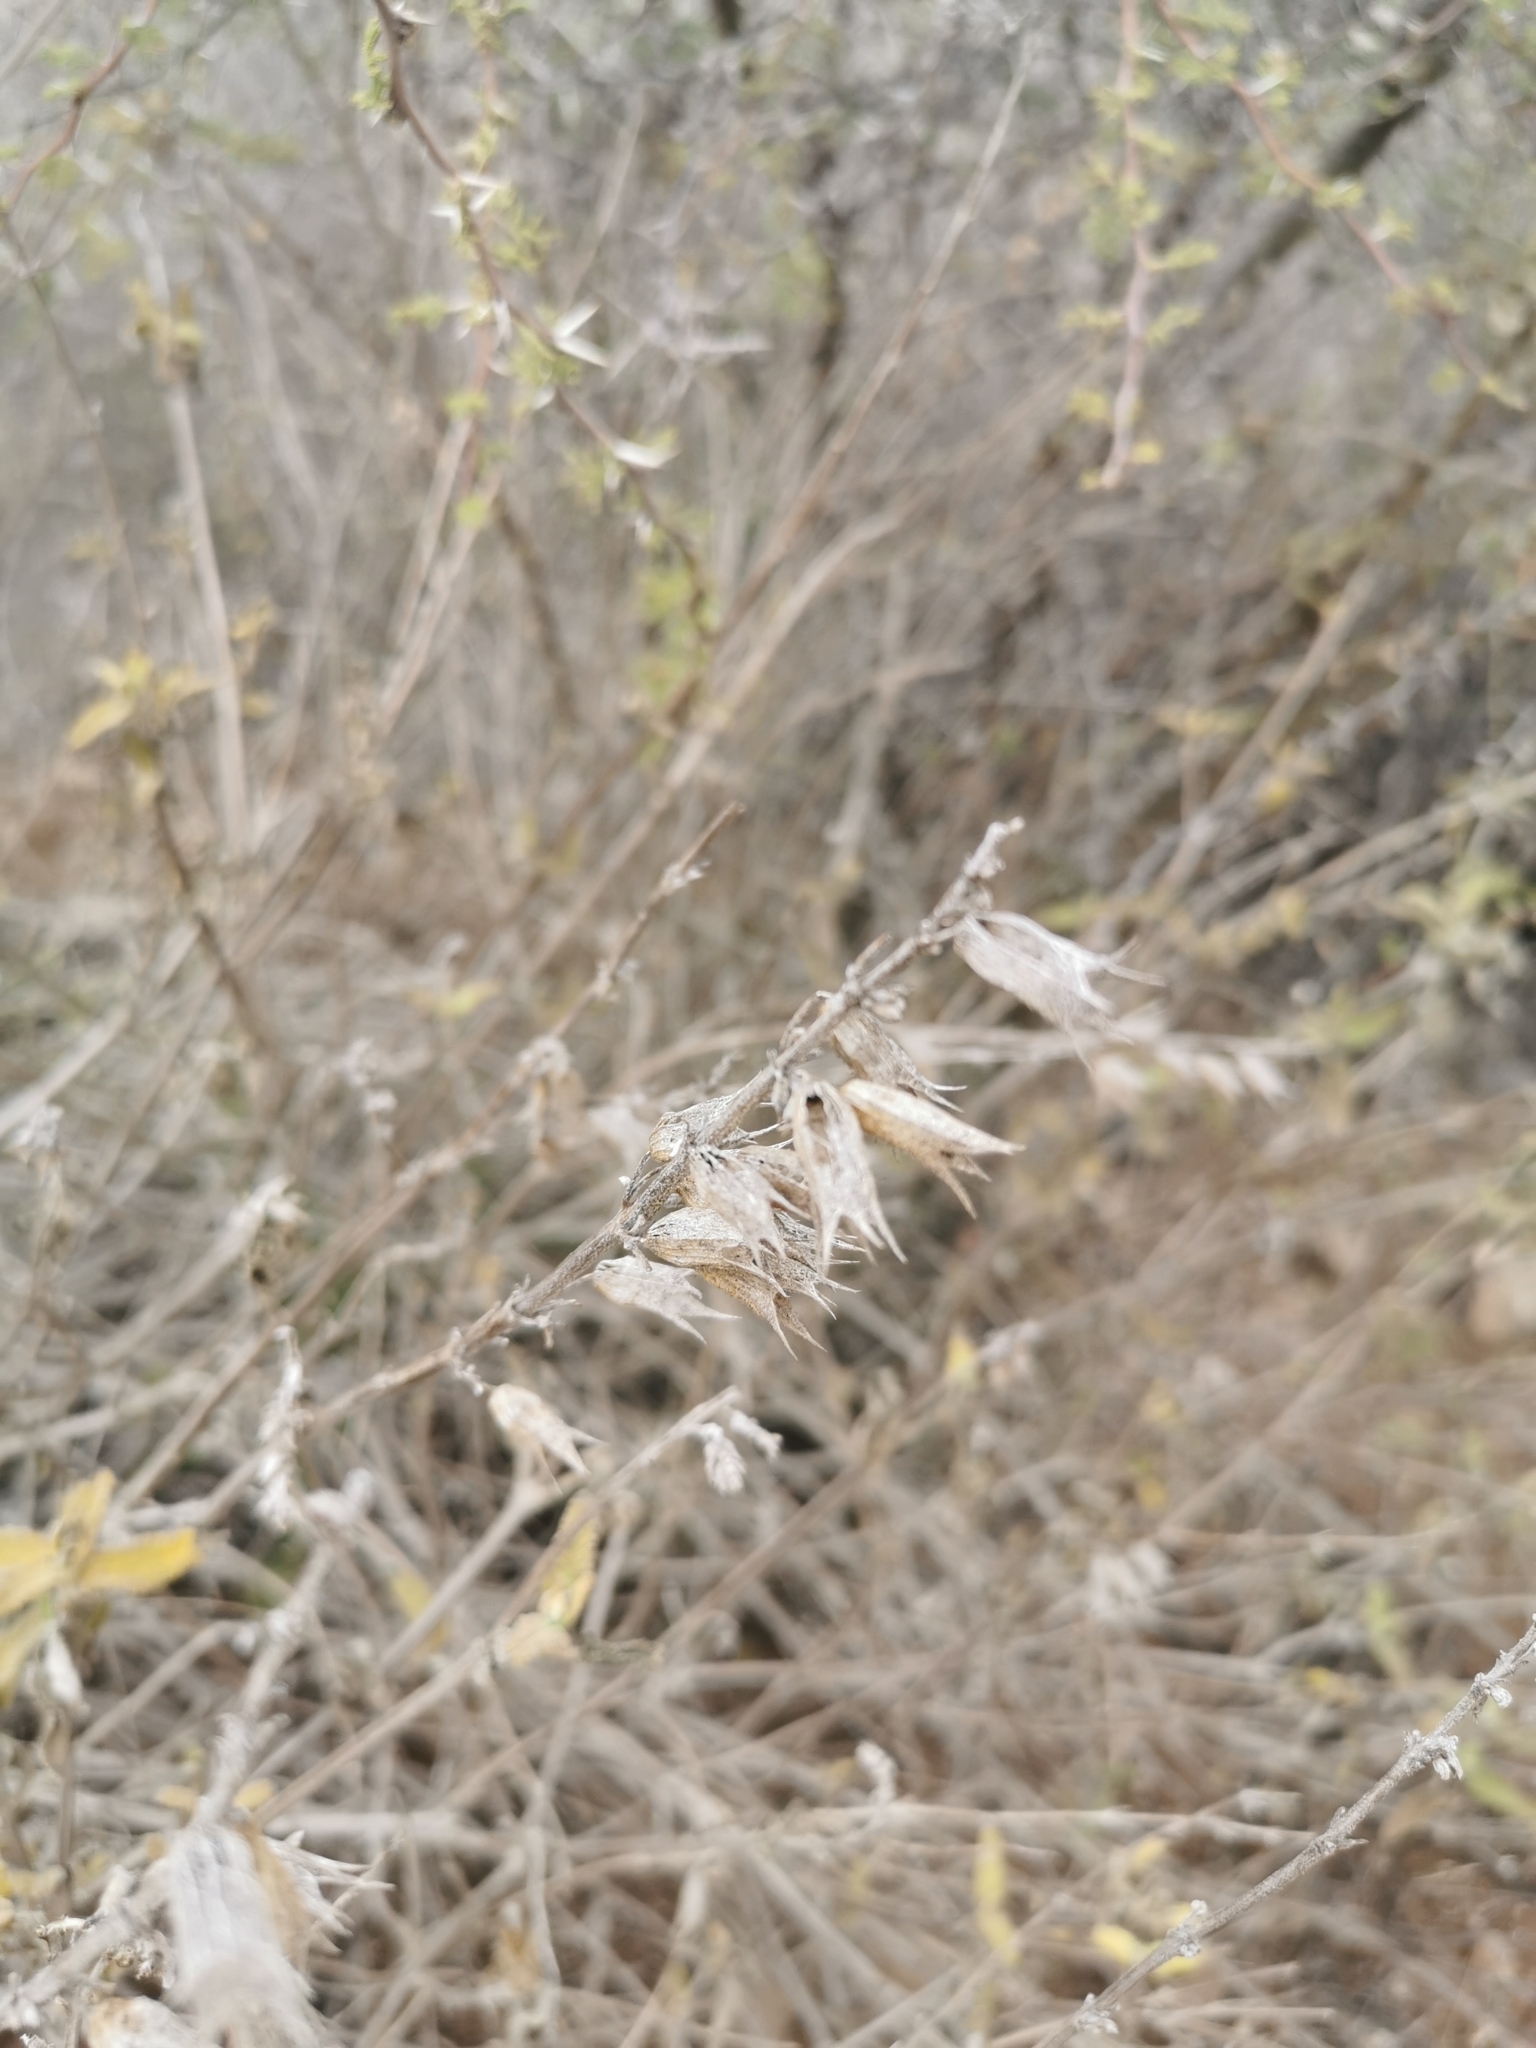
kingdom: Plantae
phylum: Tracheophyta
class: Magnoliopsida
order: Lamiales
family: Lamiaceae
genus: Lepechinia
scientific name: Lepechinia salviae
